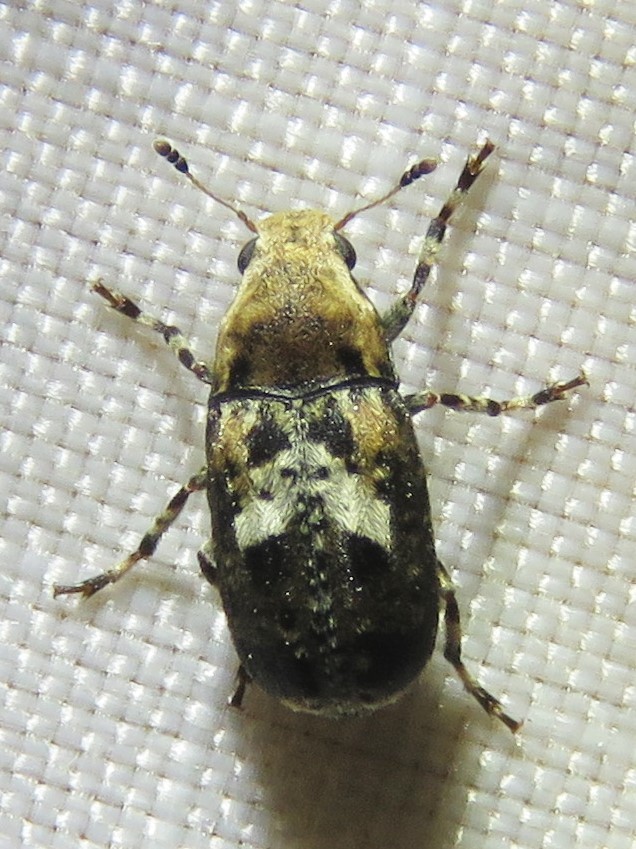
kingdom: Animalia
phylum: Arthropoda
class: Insecta
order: Coleoptera
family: Anthribidae
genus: Euparius
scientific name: Euparius paganus
